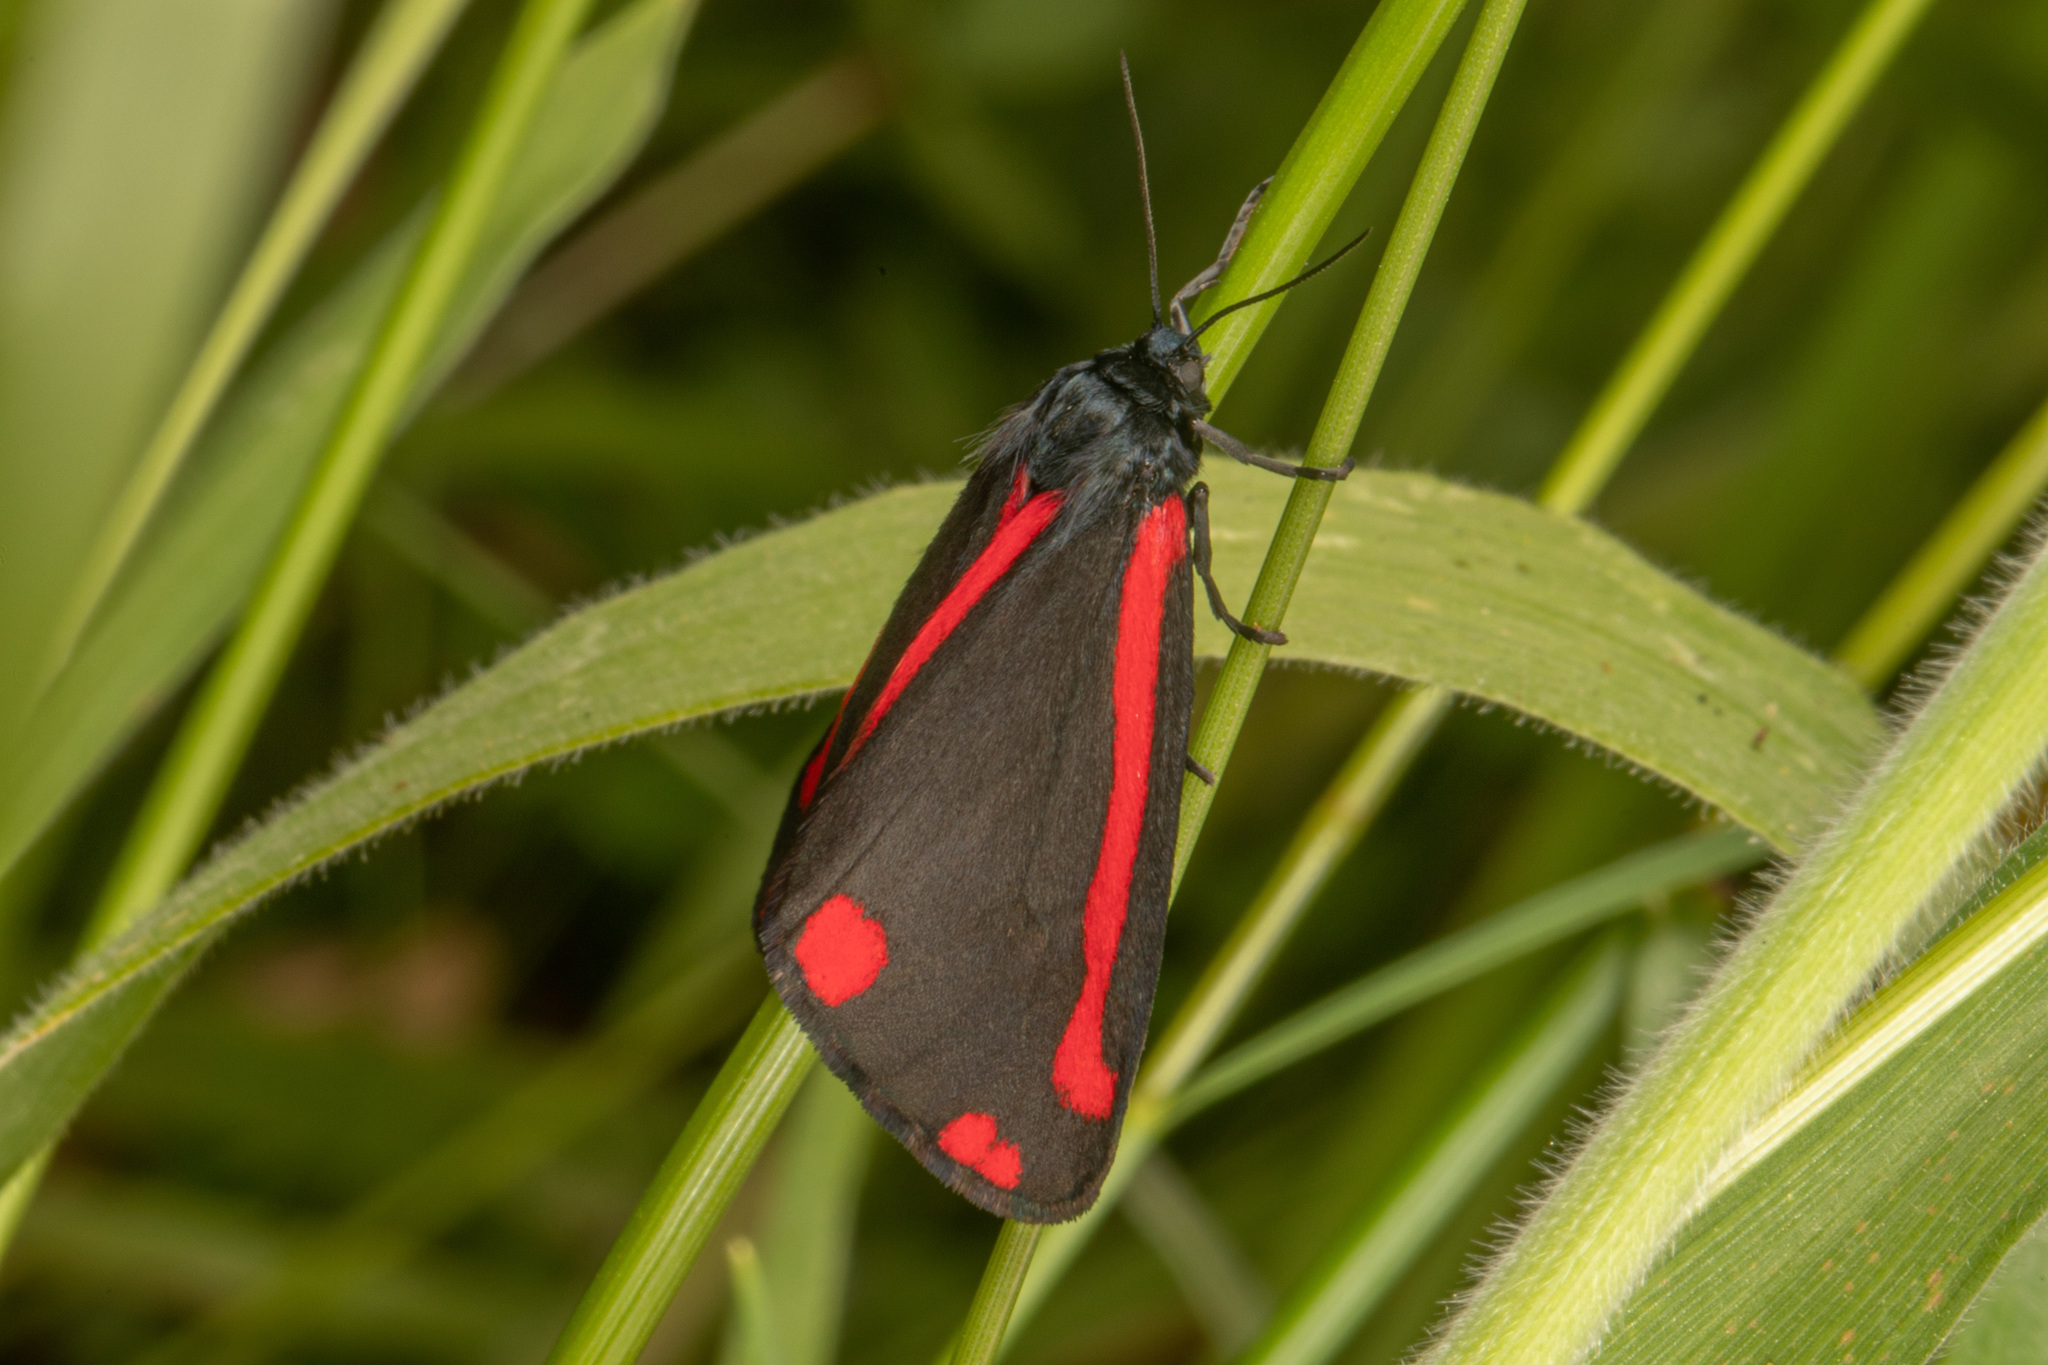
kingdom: Animalia
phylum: Arthropoda
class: Insecta
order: Lepidoptera
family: Erebidae
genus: Tyria
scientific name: Tyria jacobaeae
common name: Cinnabar
